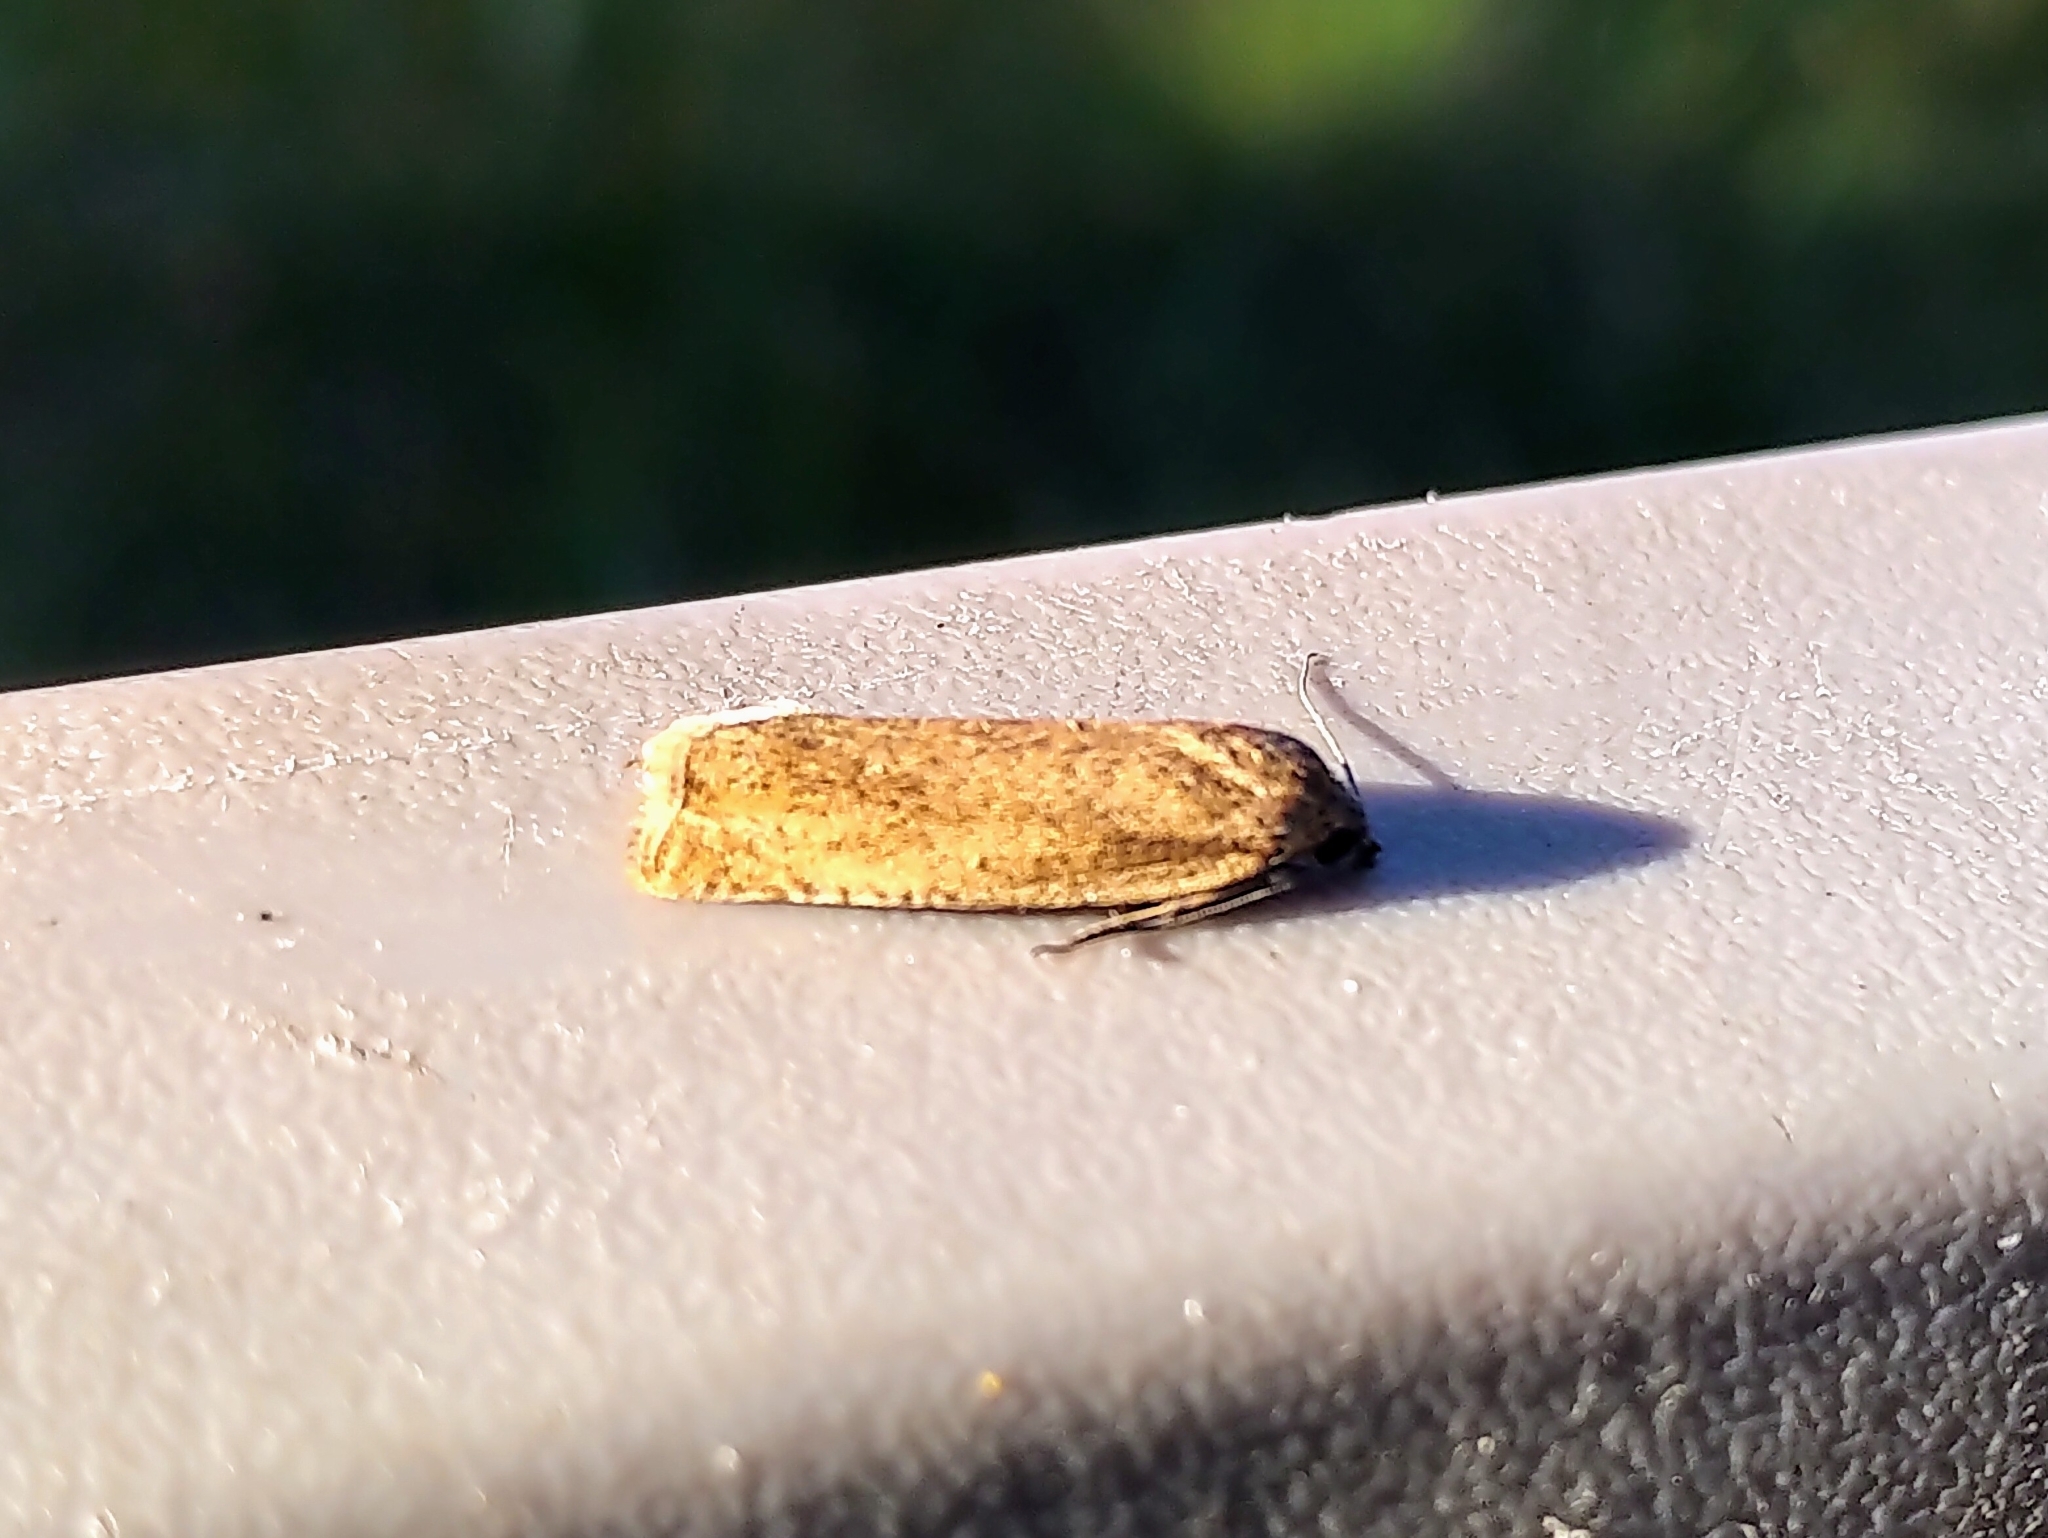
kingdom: Animalia
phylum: Arthropoda
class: Insecta
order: Lepidoptera
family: Tortricidae
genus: Hystrichophora
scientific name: Hystrichophora stygiana
